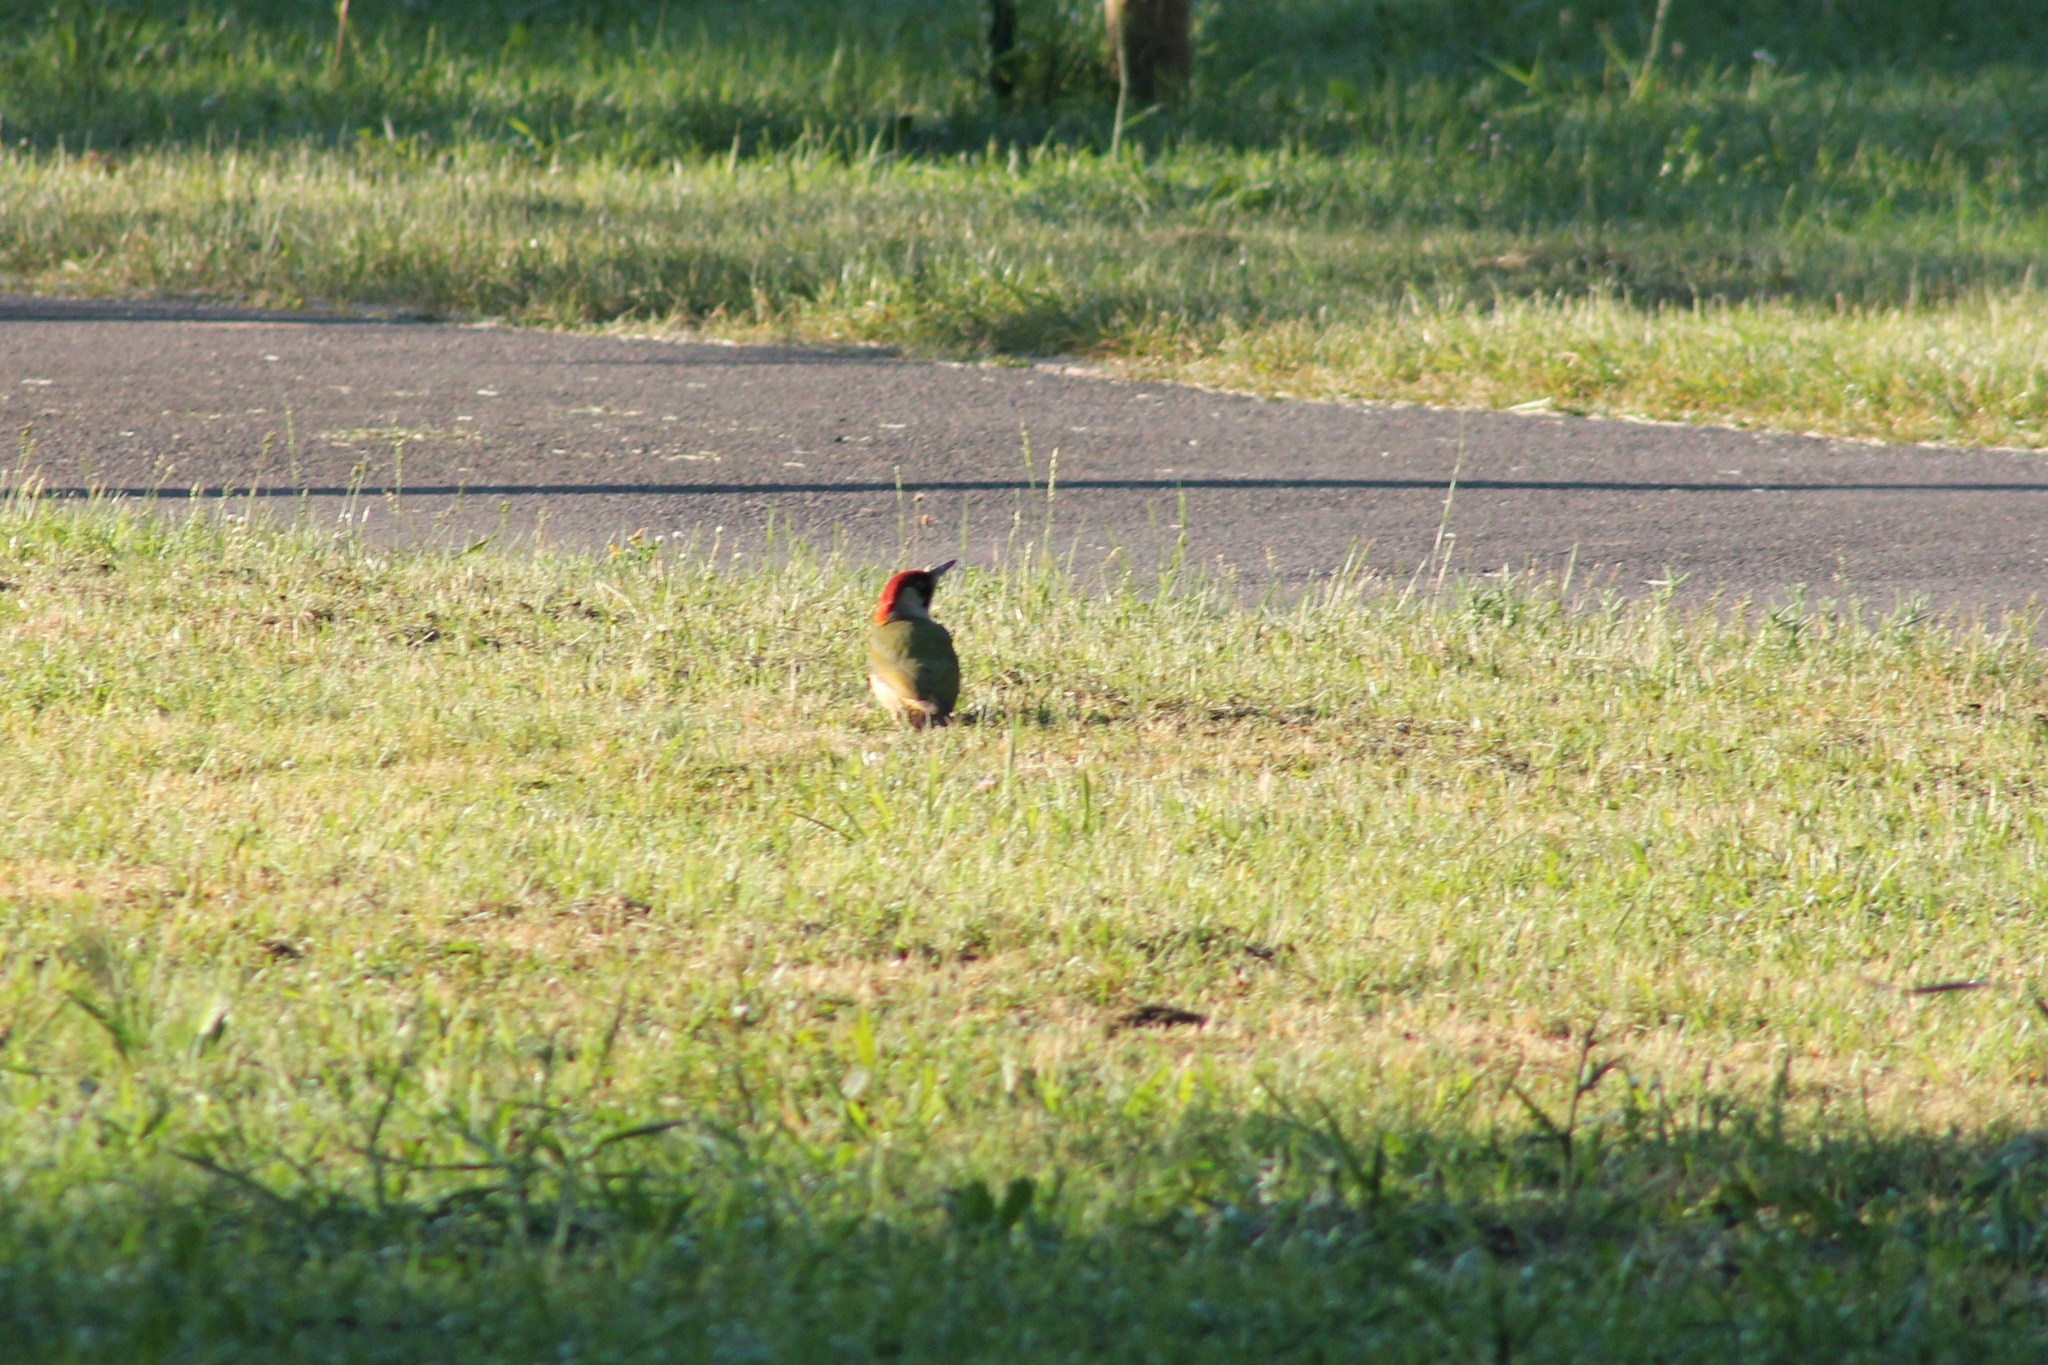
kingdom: Animalia
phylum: Chordata
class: Aves
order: Piciformes
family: Picidae
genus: Picus
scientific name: Picus viridis
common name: European green woodpecker
